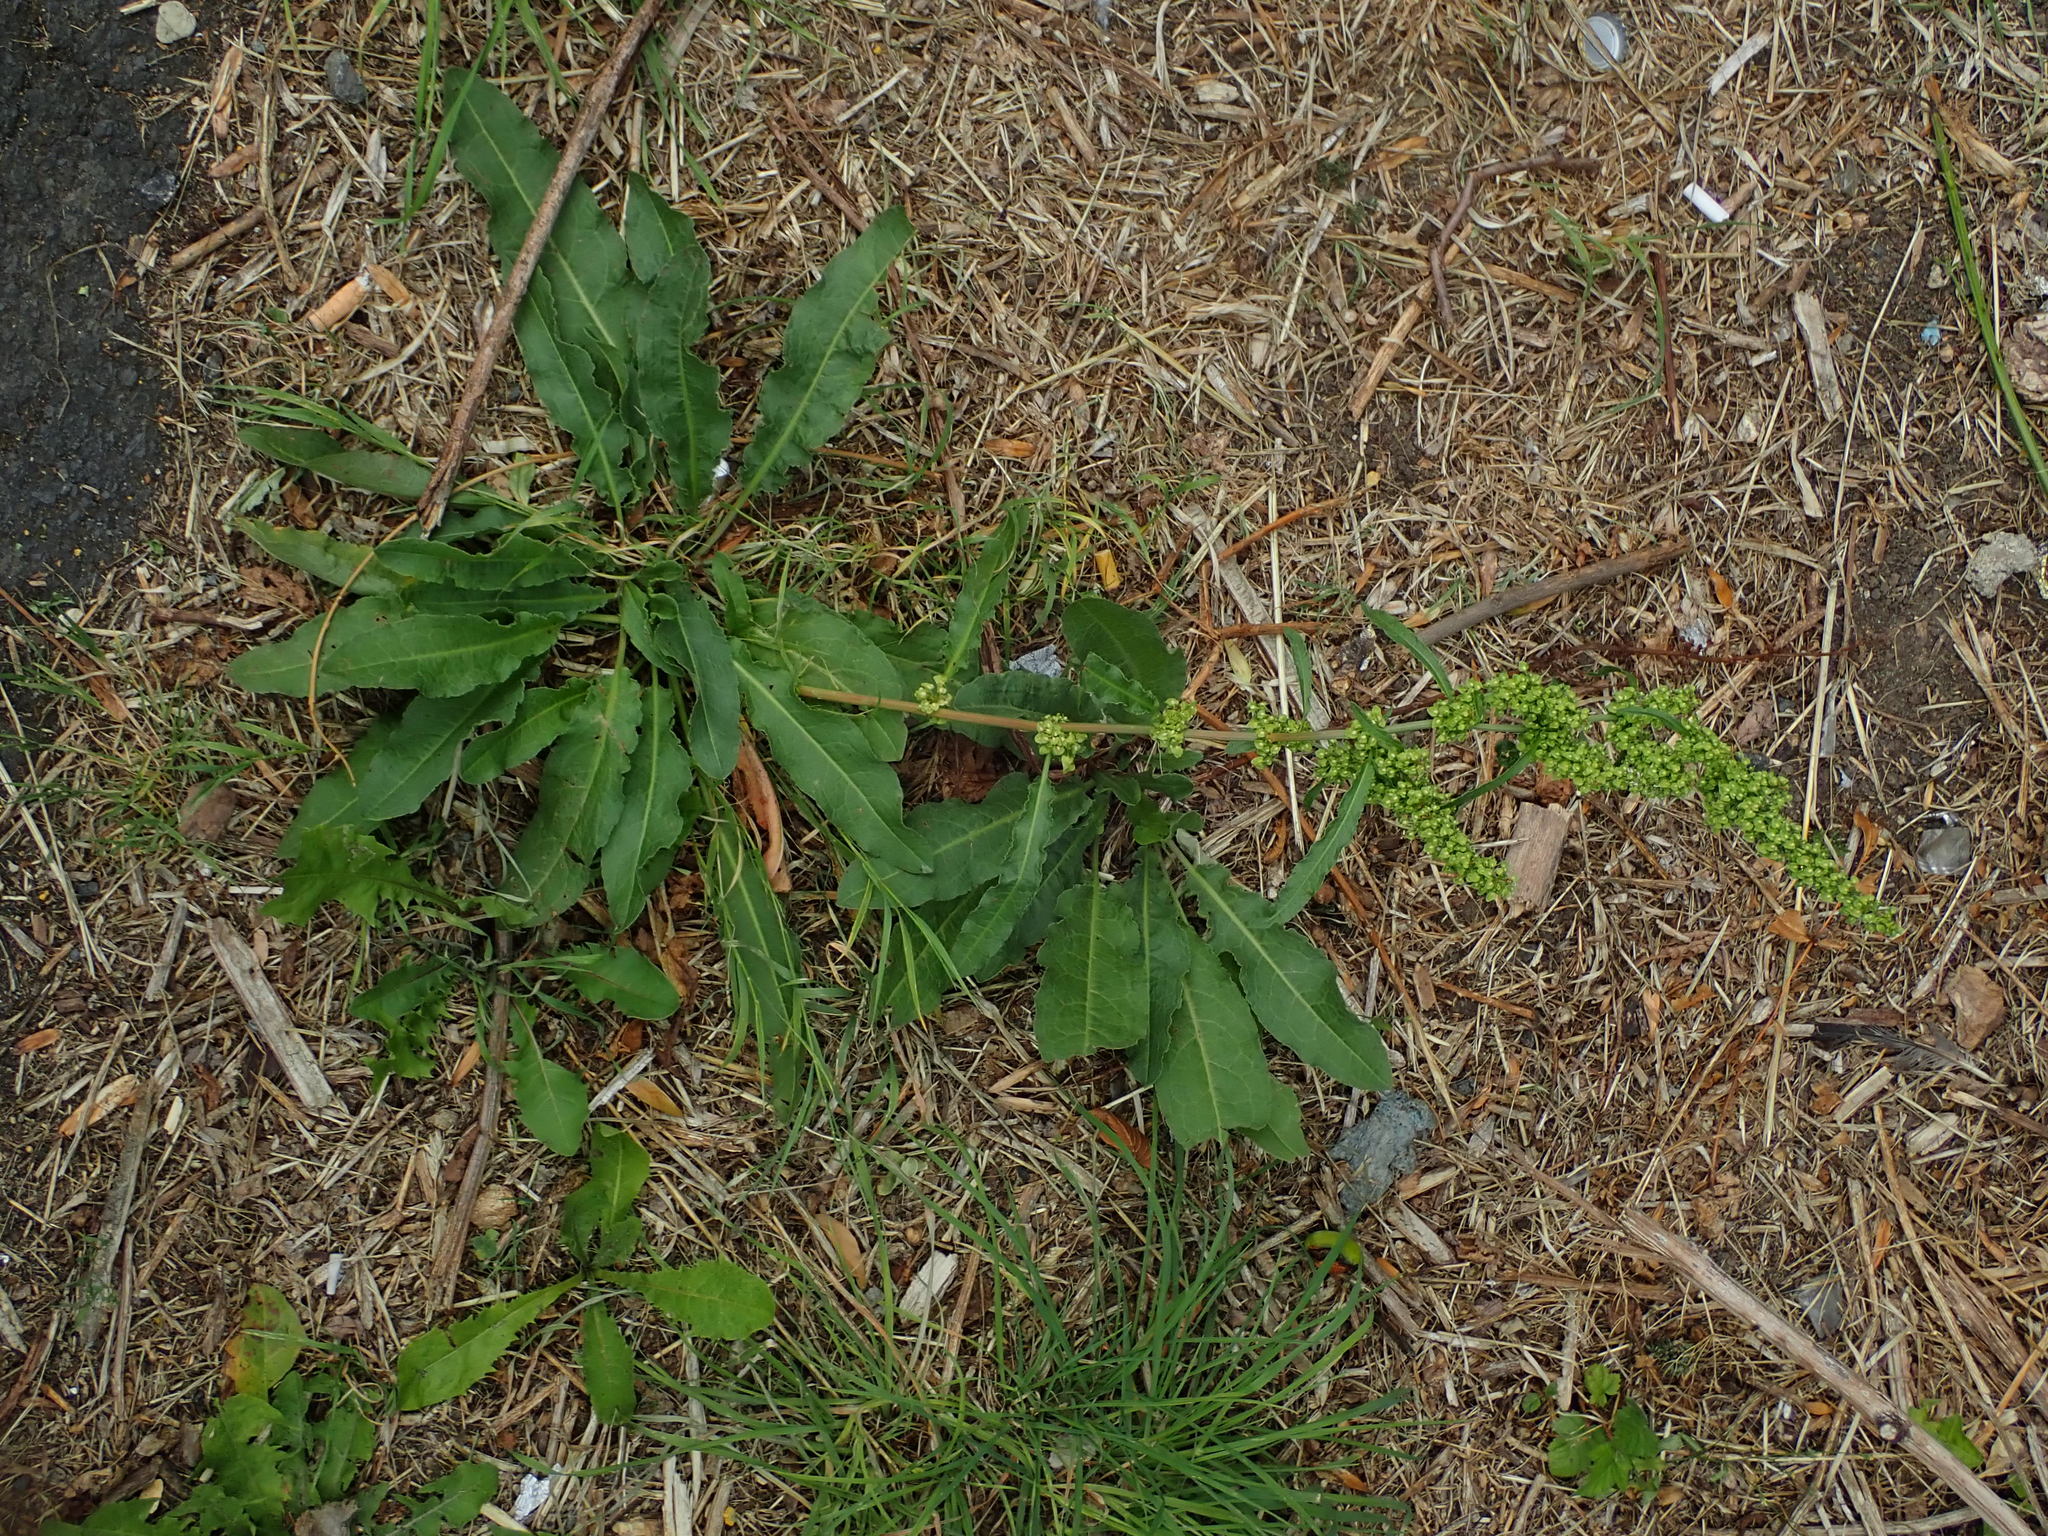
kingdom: Plantae
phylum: Tracheophyta
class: Magnoliopsida
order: Caryophyllales
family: Polygonaceae
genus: Rumex
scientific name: Rumex crispus
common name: Curled dock
